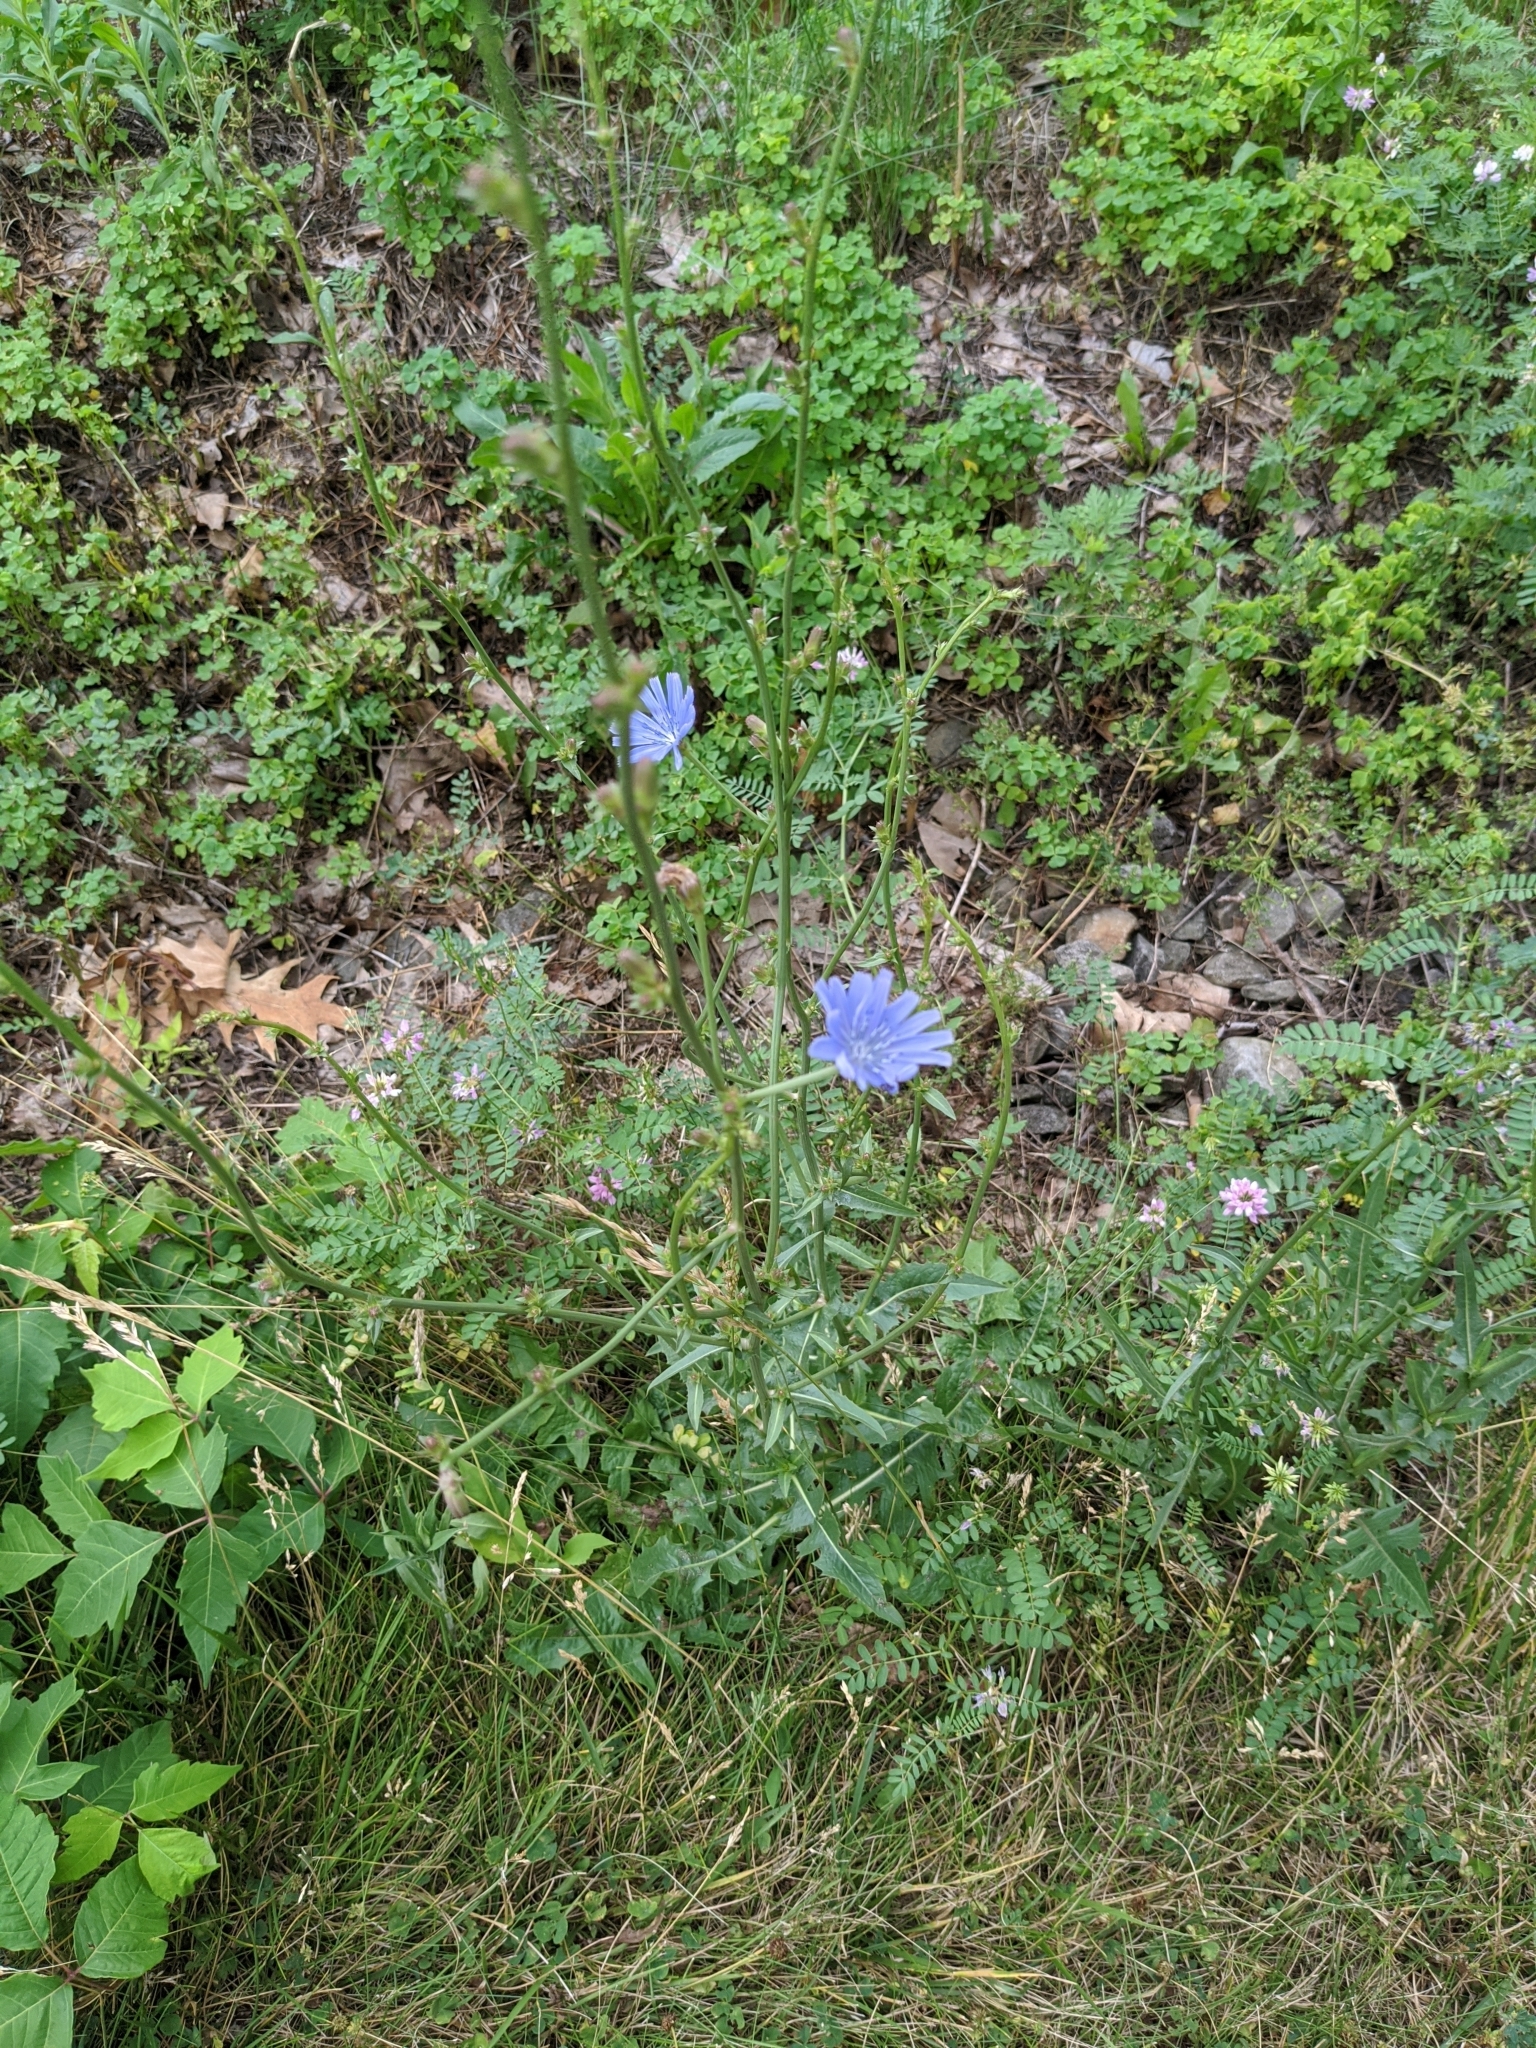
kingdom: Plantae
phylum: Tracheophyta
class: Magnoliopsida
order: Asterales
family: Asteraceae
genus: Cichorium
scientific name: Cichorium intybus
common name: Chicory
